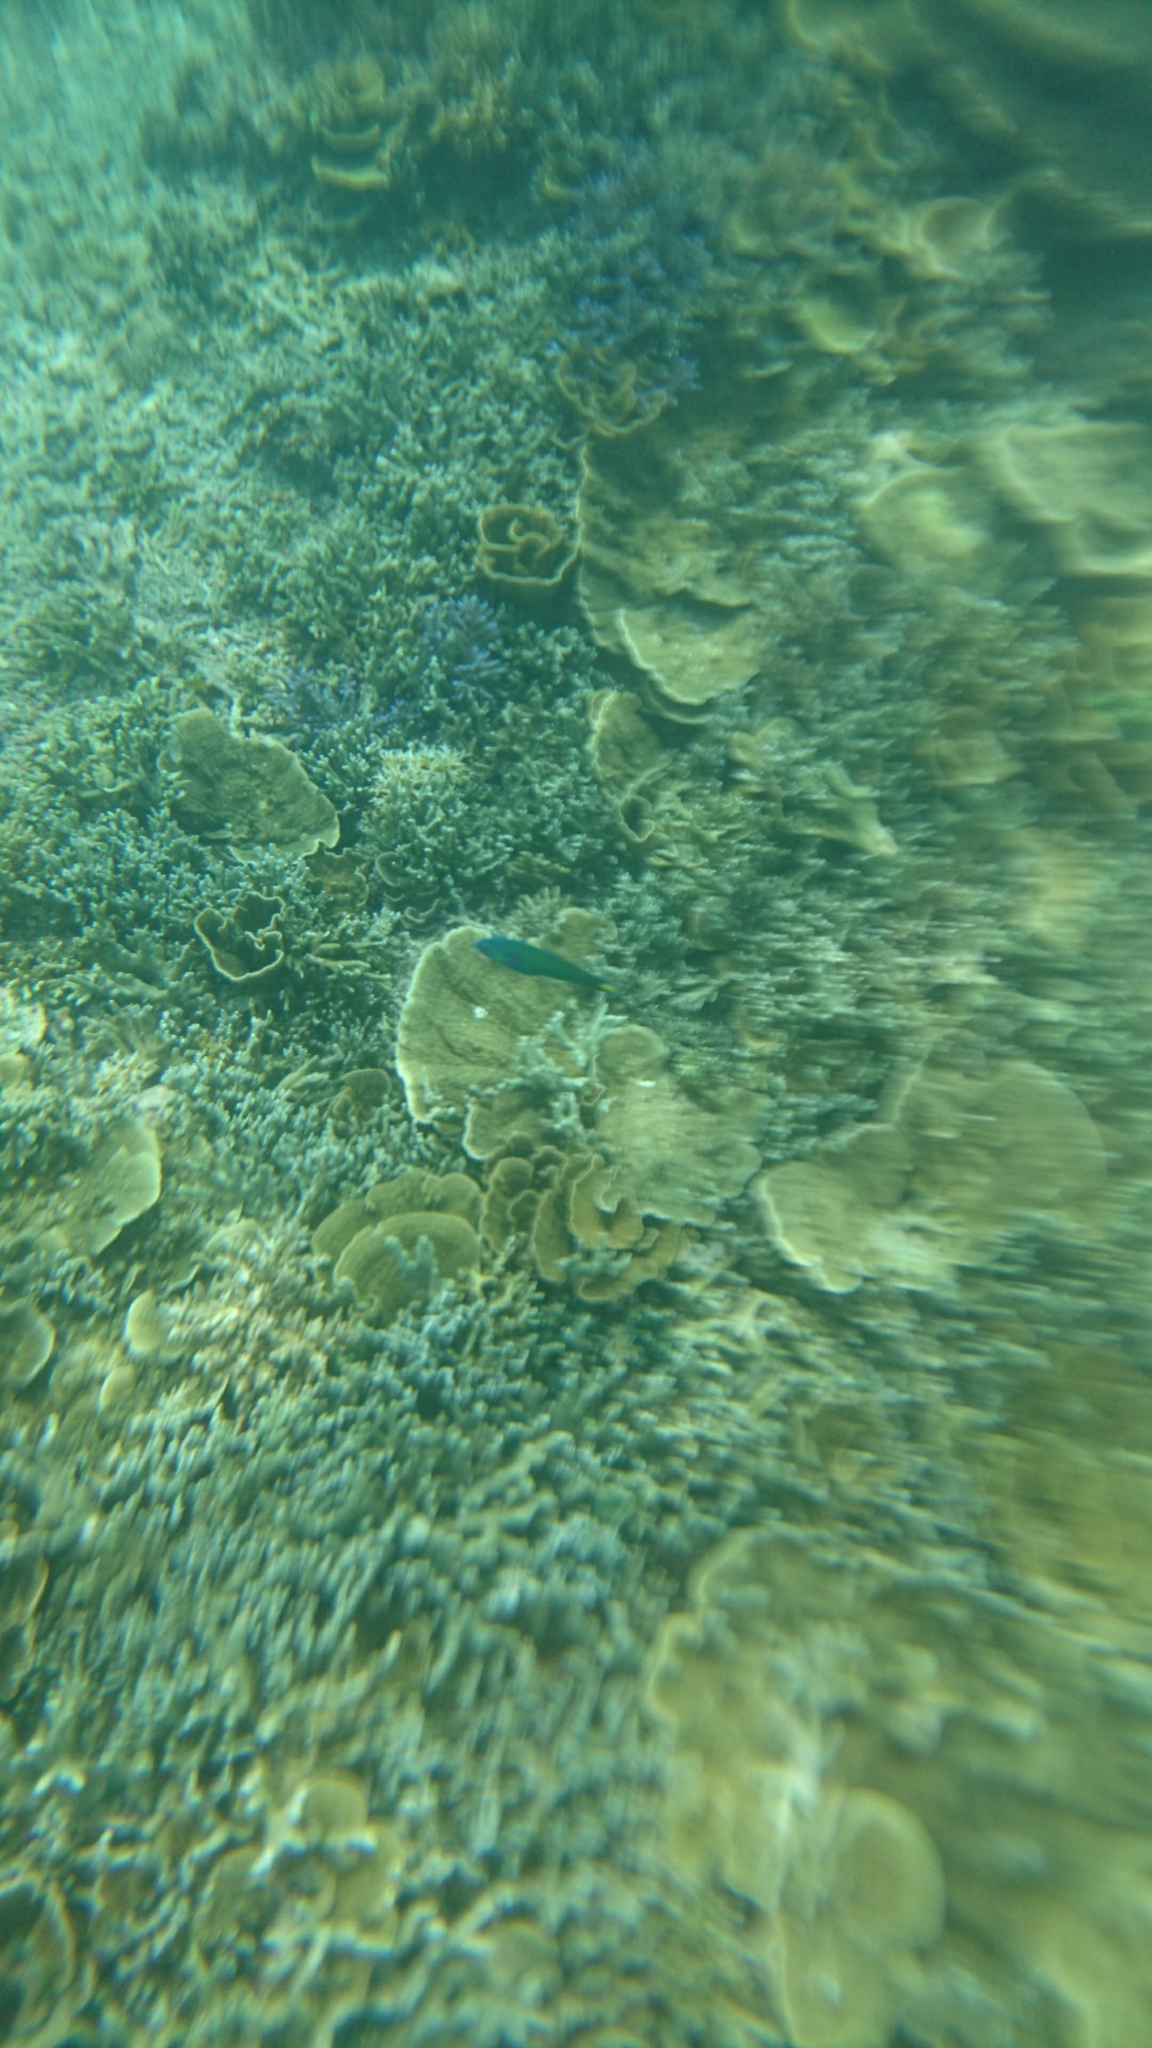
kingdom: Animalia
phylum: Chordata
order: Perciformes
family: Labridae
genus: Thalassoma
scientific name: Thalassoma lunare
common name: Blue wrasse
